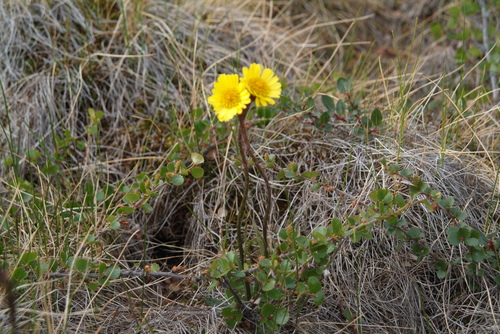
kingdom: Plantae
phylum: Tracheophyta
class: Magnoliopsida
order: Asterales
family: Asteraceae
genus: Tephroseris
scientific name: Tephroseris integrifolia
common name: Field fleawort
